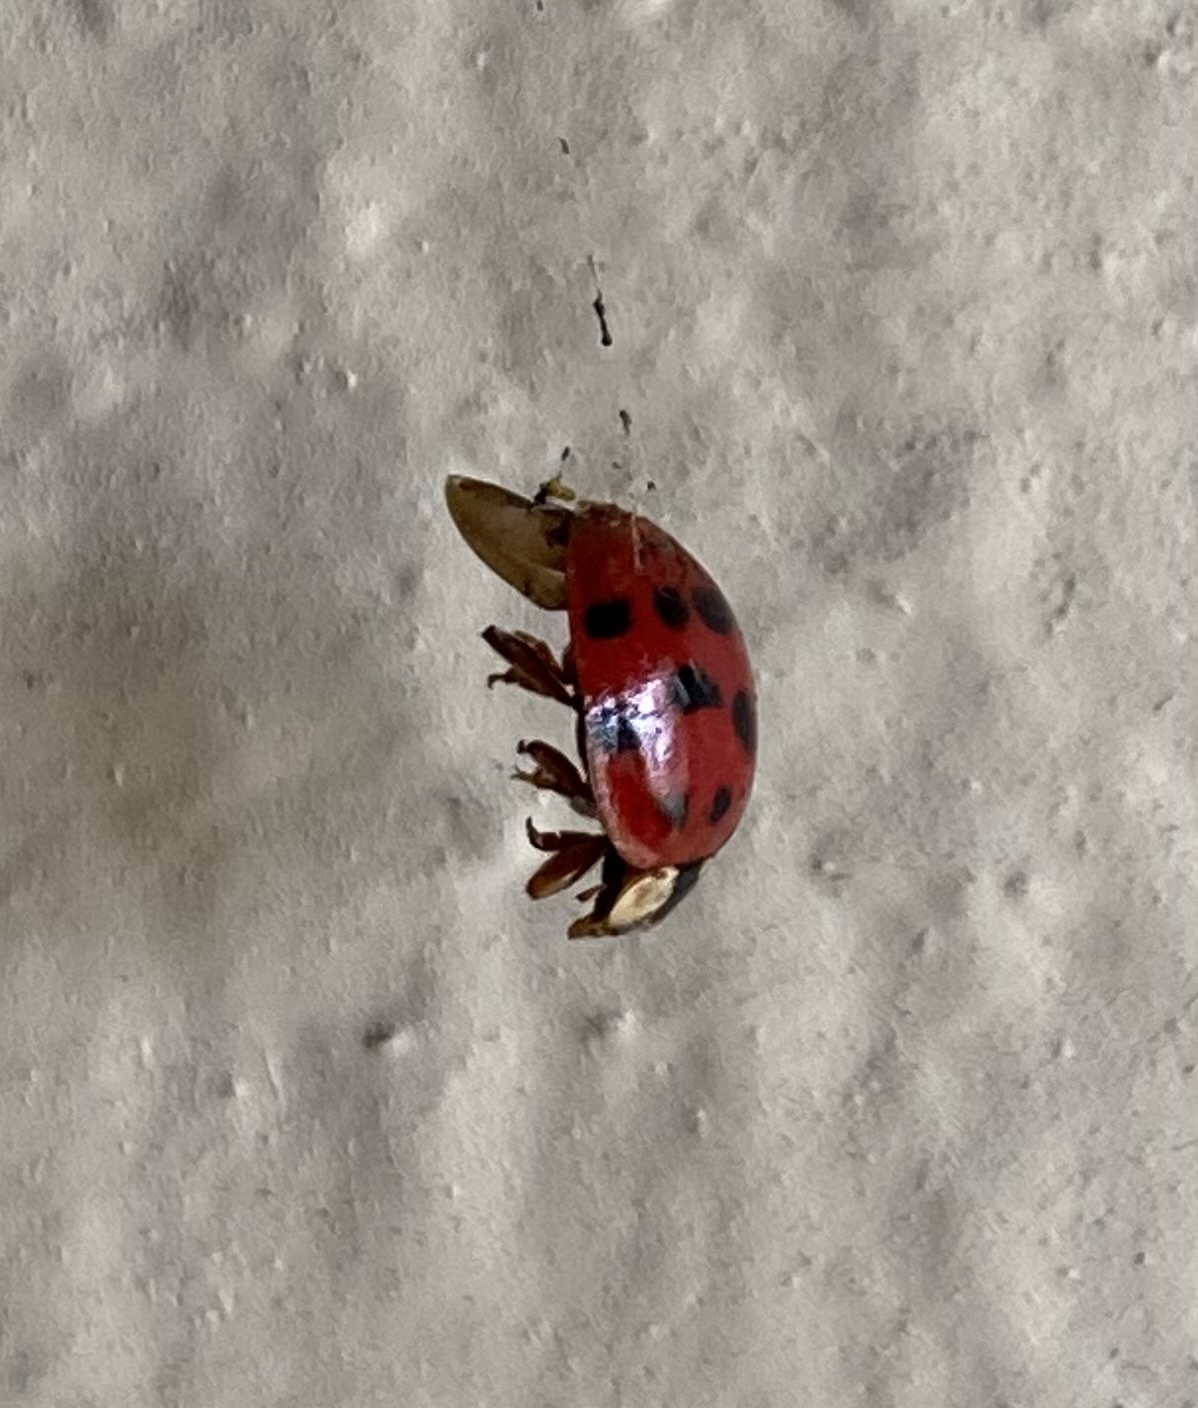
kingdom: Animalia
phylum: Arthropoda
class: Insecta
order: Coleoptera
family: Coccinellidae
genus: Harmonia
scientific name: Harmonia axyridis
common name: Harlequin ladybird
